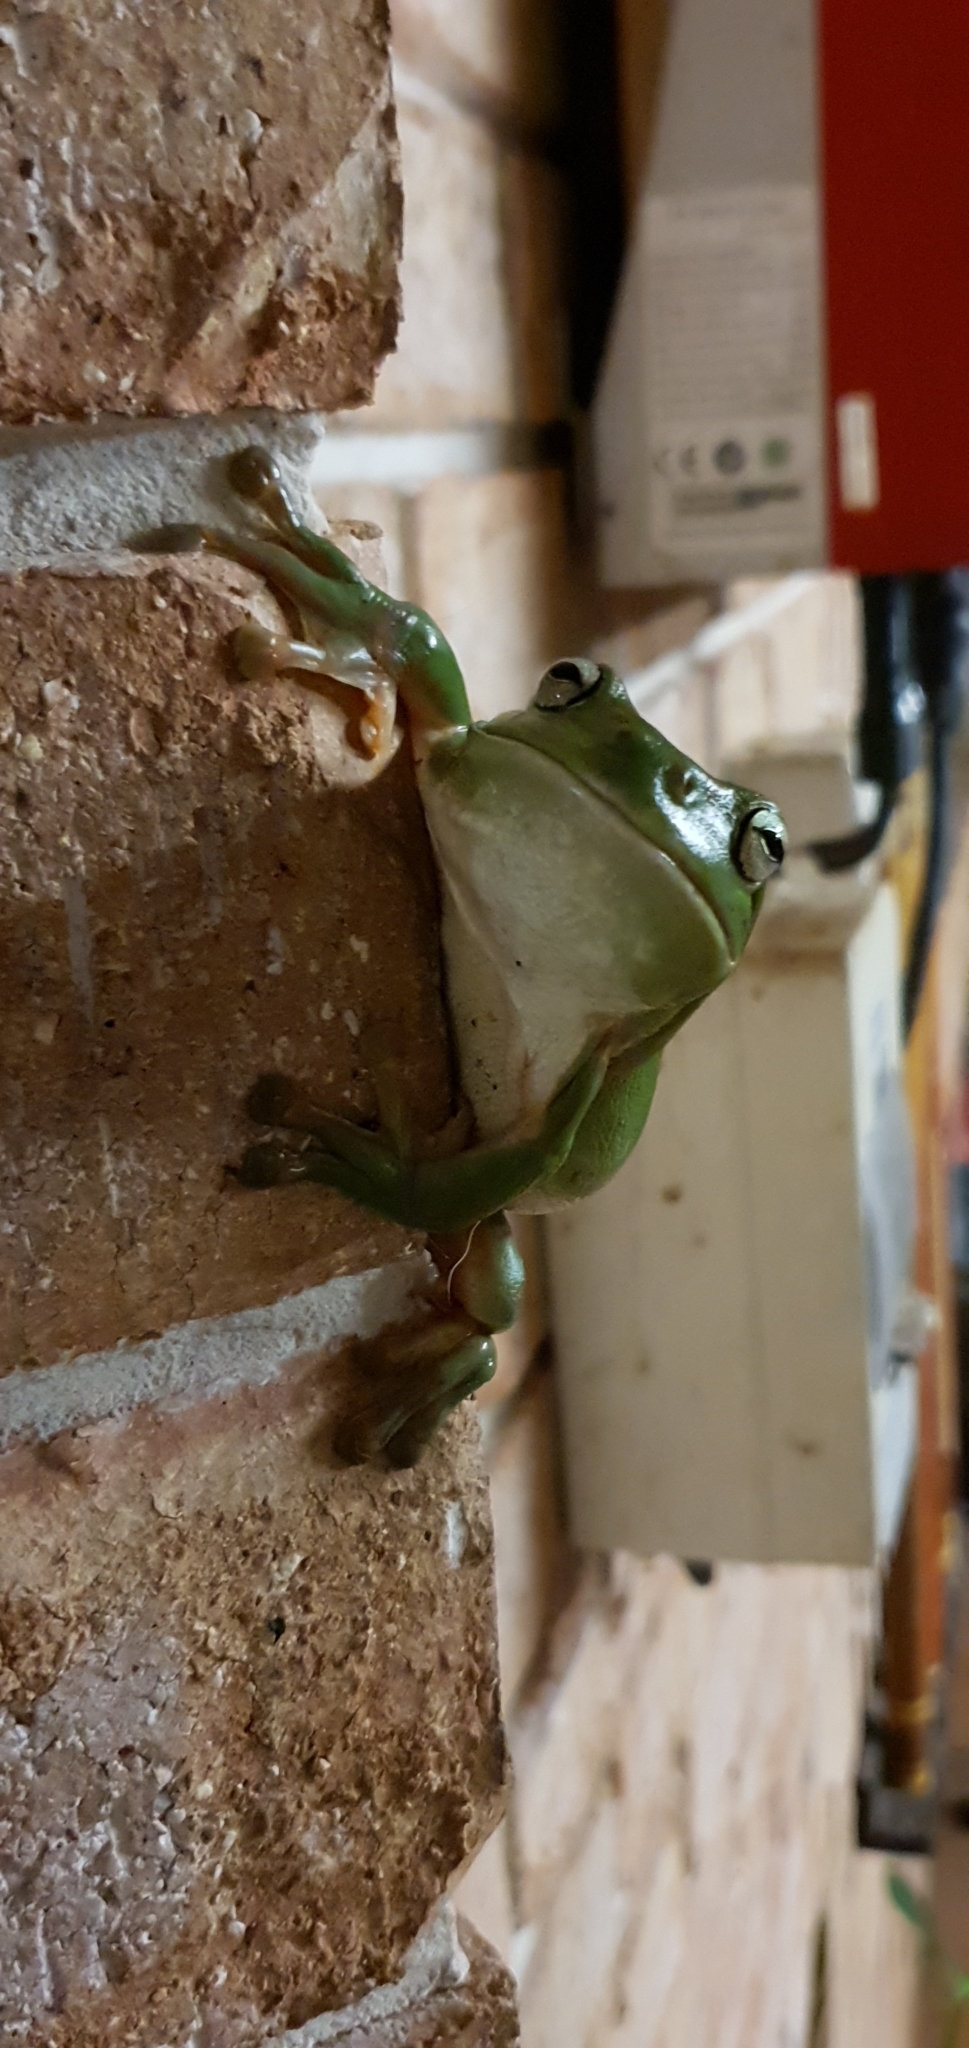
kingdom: Animalia
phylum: Chordata
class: Amphibia
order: Anura
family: Pelodryadidae
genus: Ranoidea
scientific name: Ranoidea caerulea
